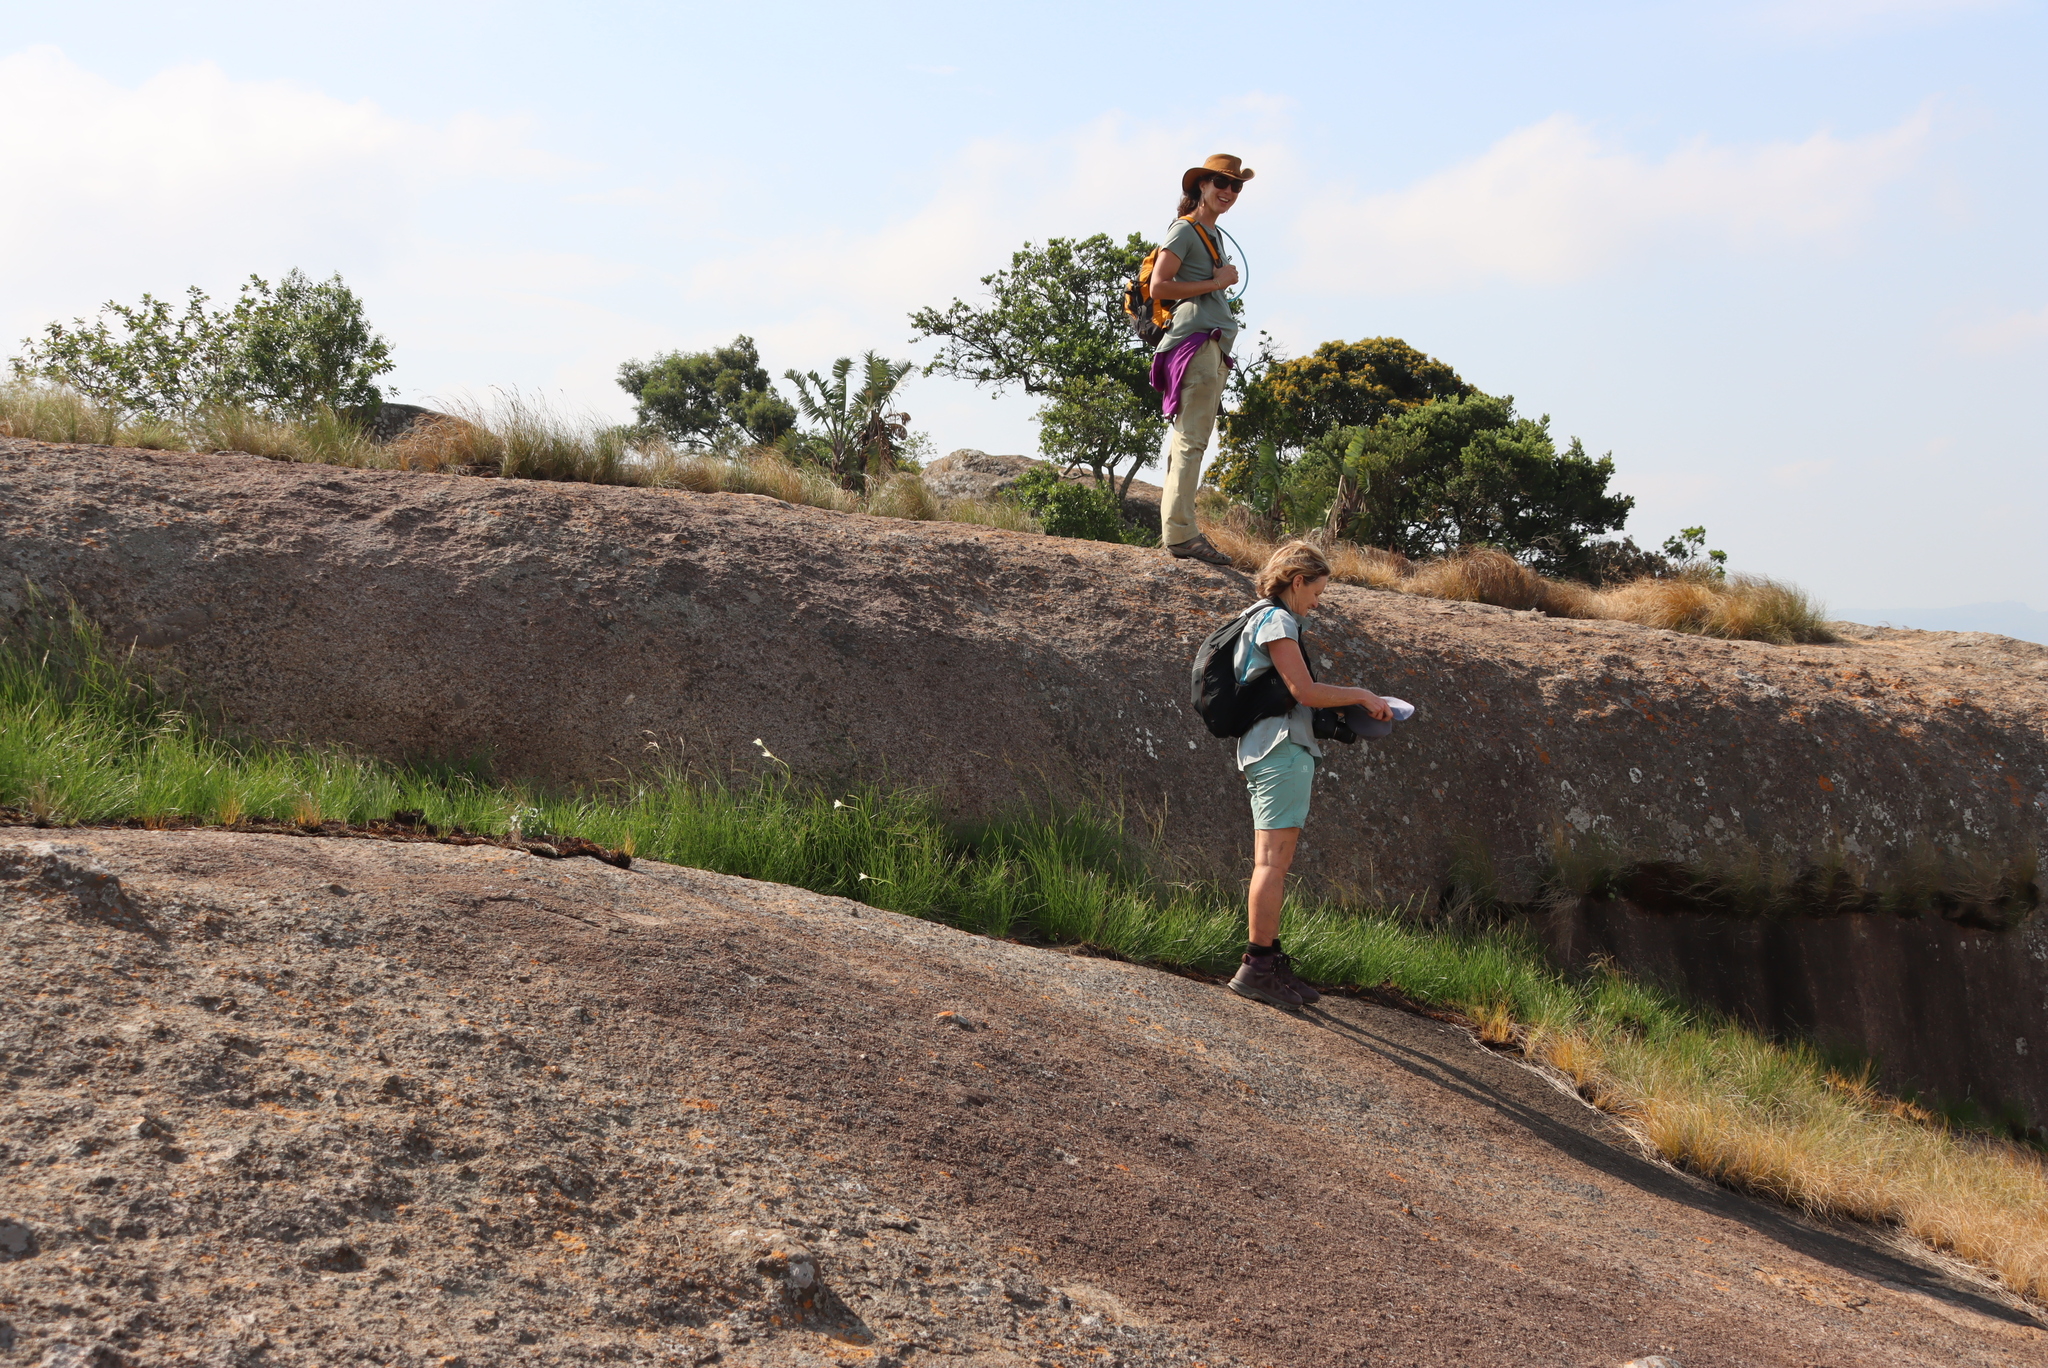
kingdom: Plantae
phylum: Tracheophyta
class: Liliopsida
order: Asparagales
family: Iridaceae
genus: Gladiolus
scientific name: Gladiolus longicollis
